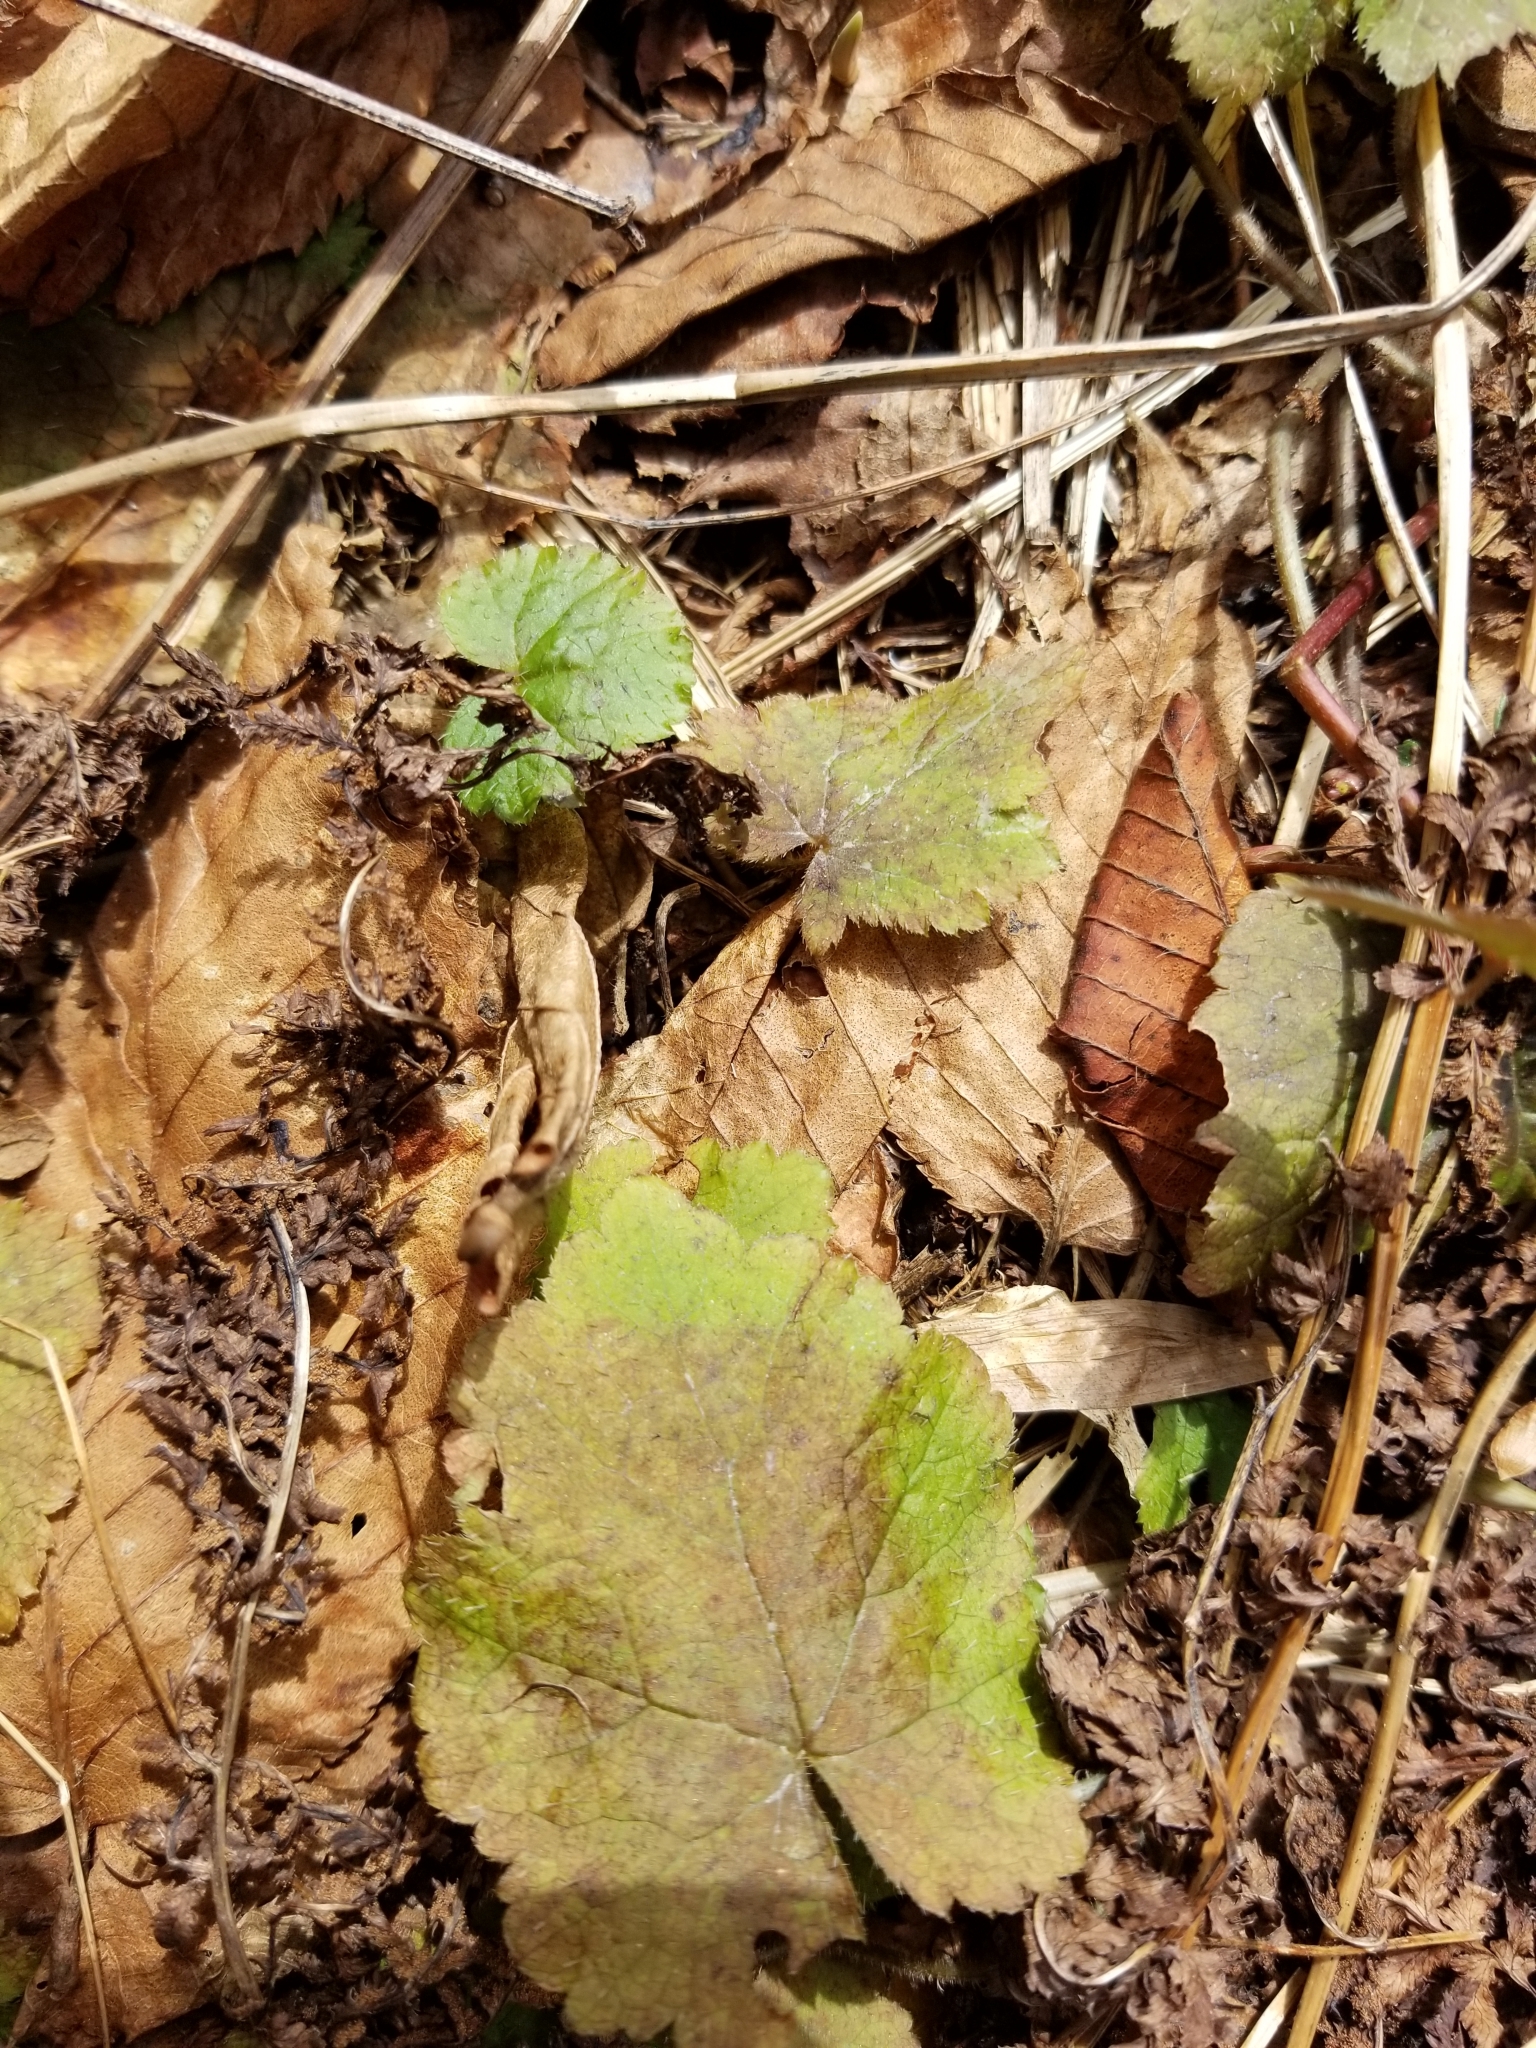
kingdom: Plantae
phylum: Tracheophyta
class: Magnoliopsida
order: Saxifragales
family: Saxifragaceae
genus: Tiarella
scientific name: Tiarella stolonifera
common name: Stoloniferous foamflower
